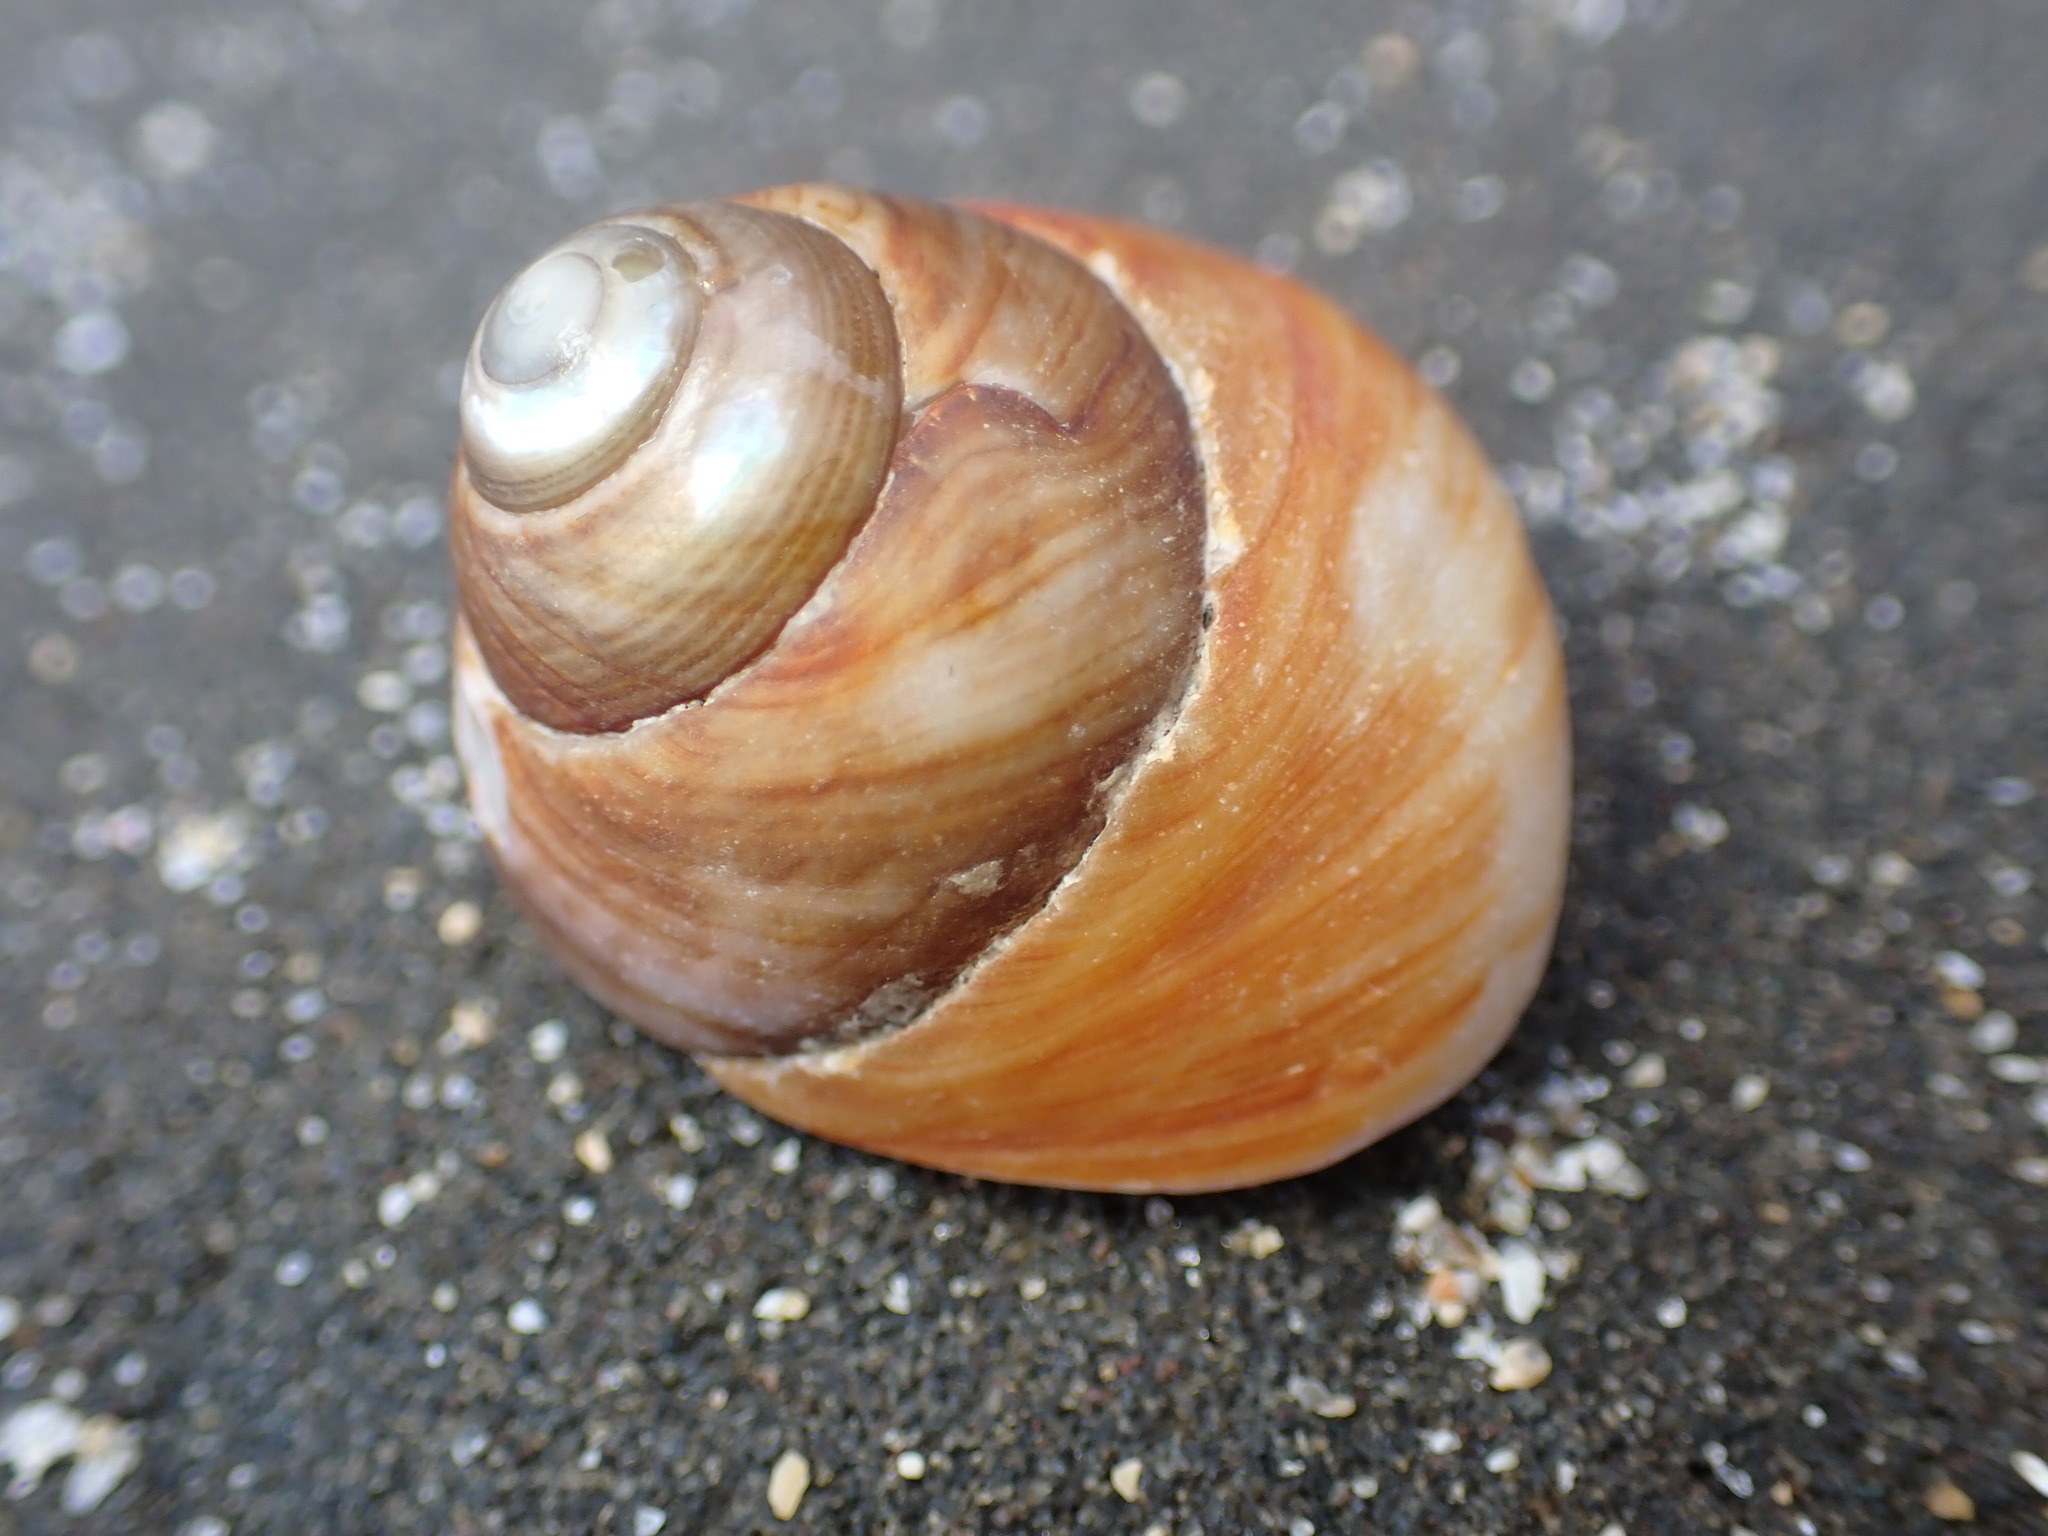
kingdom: Animalia
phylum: Mollusca
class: Gastropoda
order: Trochida
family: Tegulidae
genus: Tegula
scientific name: Tegula brunnea
